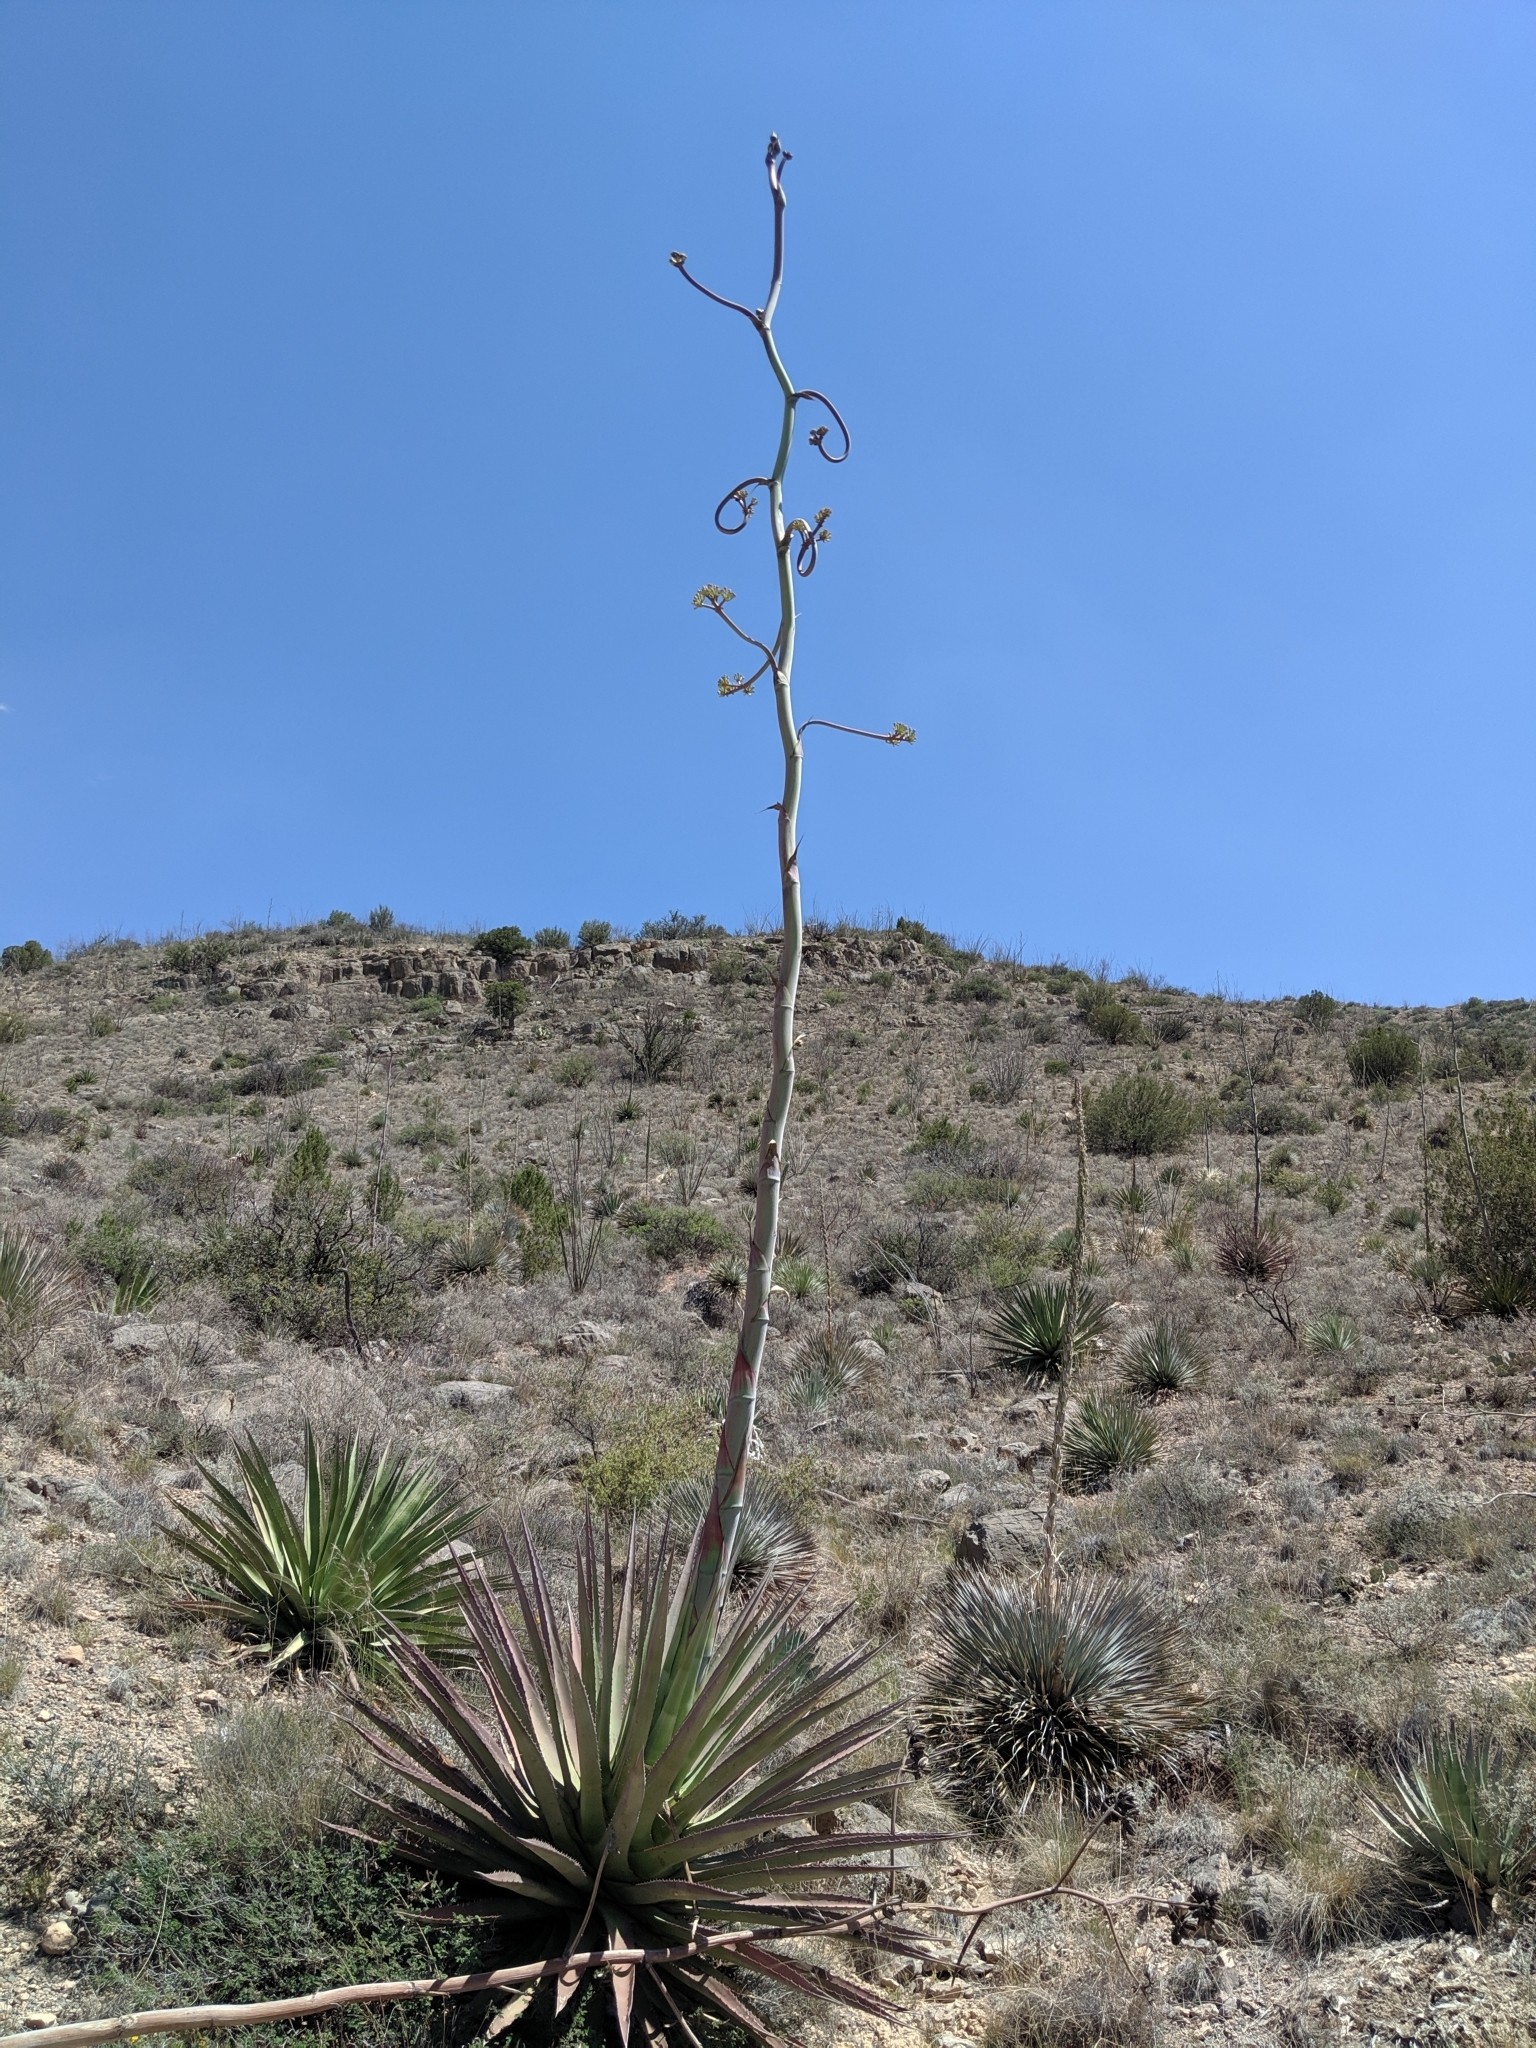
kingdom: Plantae
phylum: Tracheophyta
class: Liliopsida
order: Asparagales
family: Asparagaceae
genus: Agave
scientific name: Agave palmeri
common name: Palmer agave
